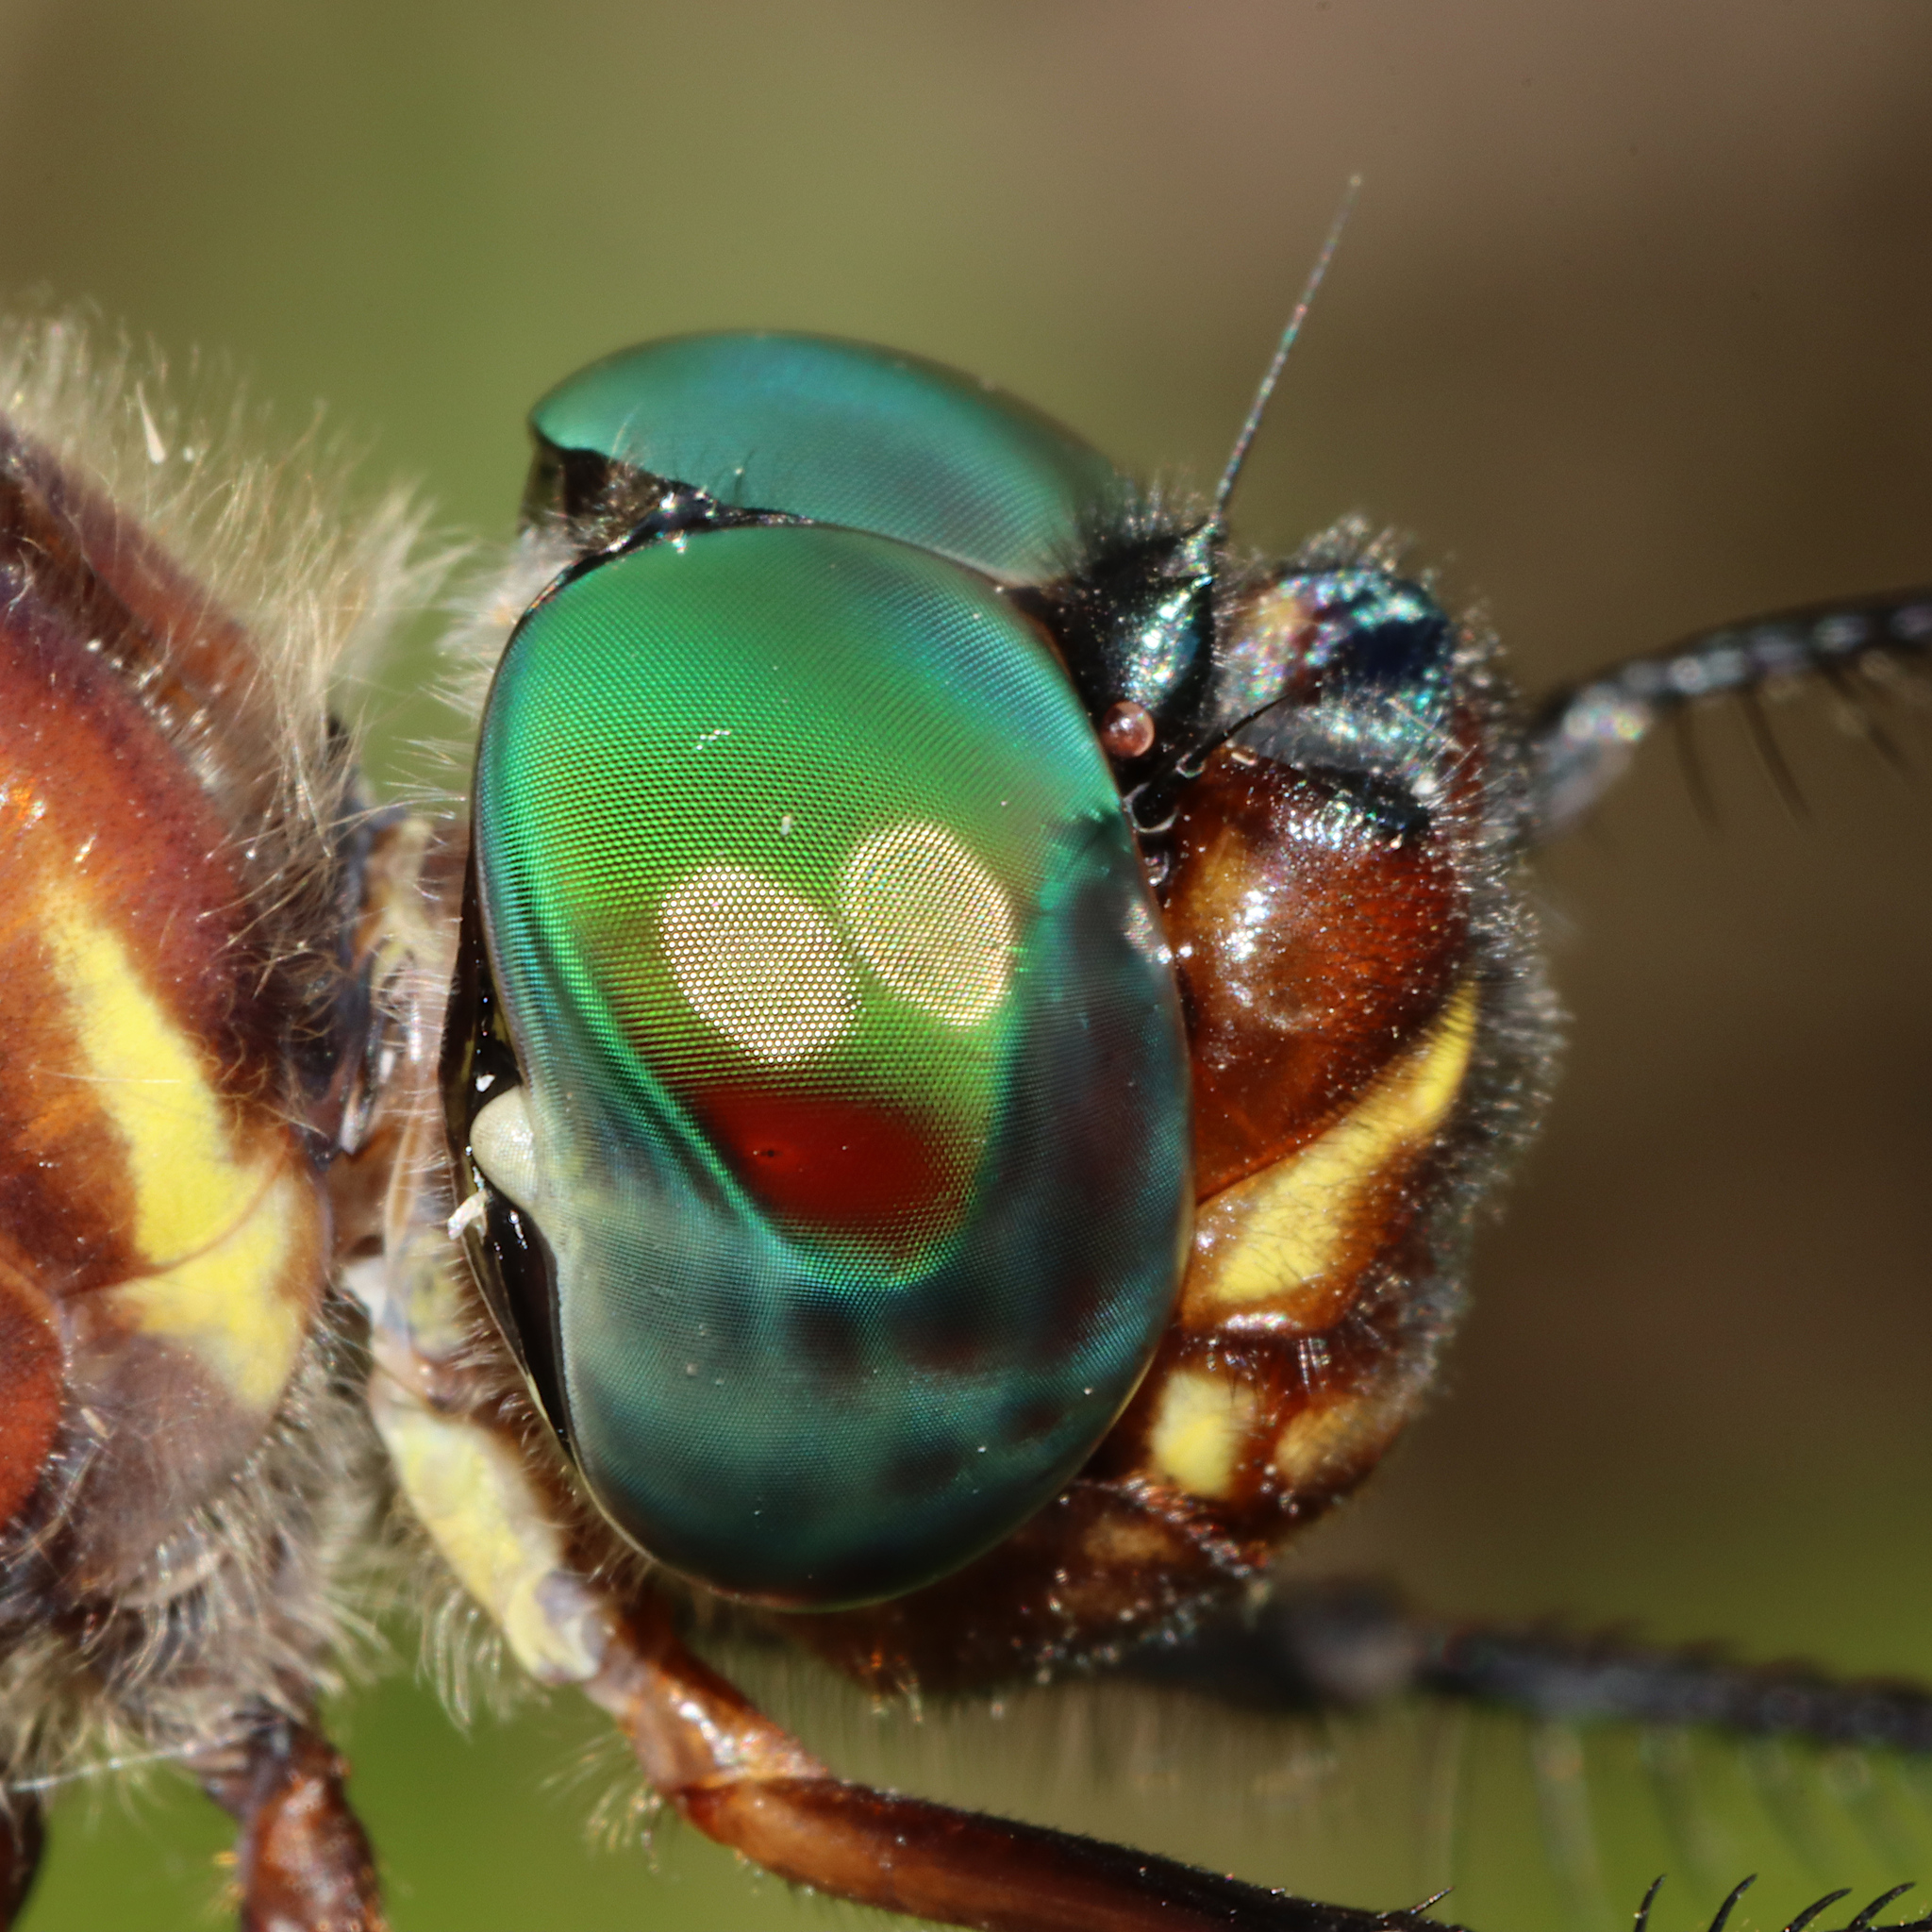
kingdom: Animalia
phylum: Arthropoda
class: Insecta
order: Odonata
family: Macromiidae
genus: Macromia
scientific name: Macromia taeniolata
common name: Royal river cruiser
